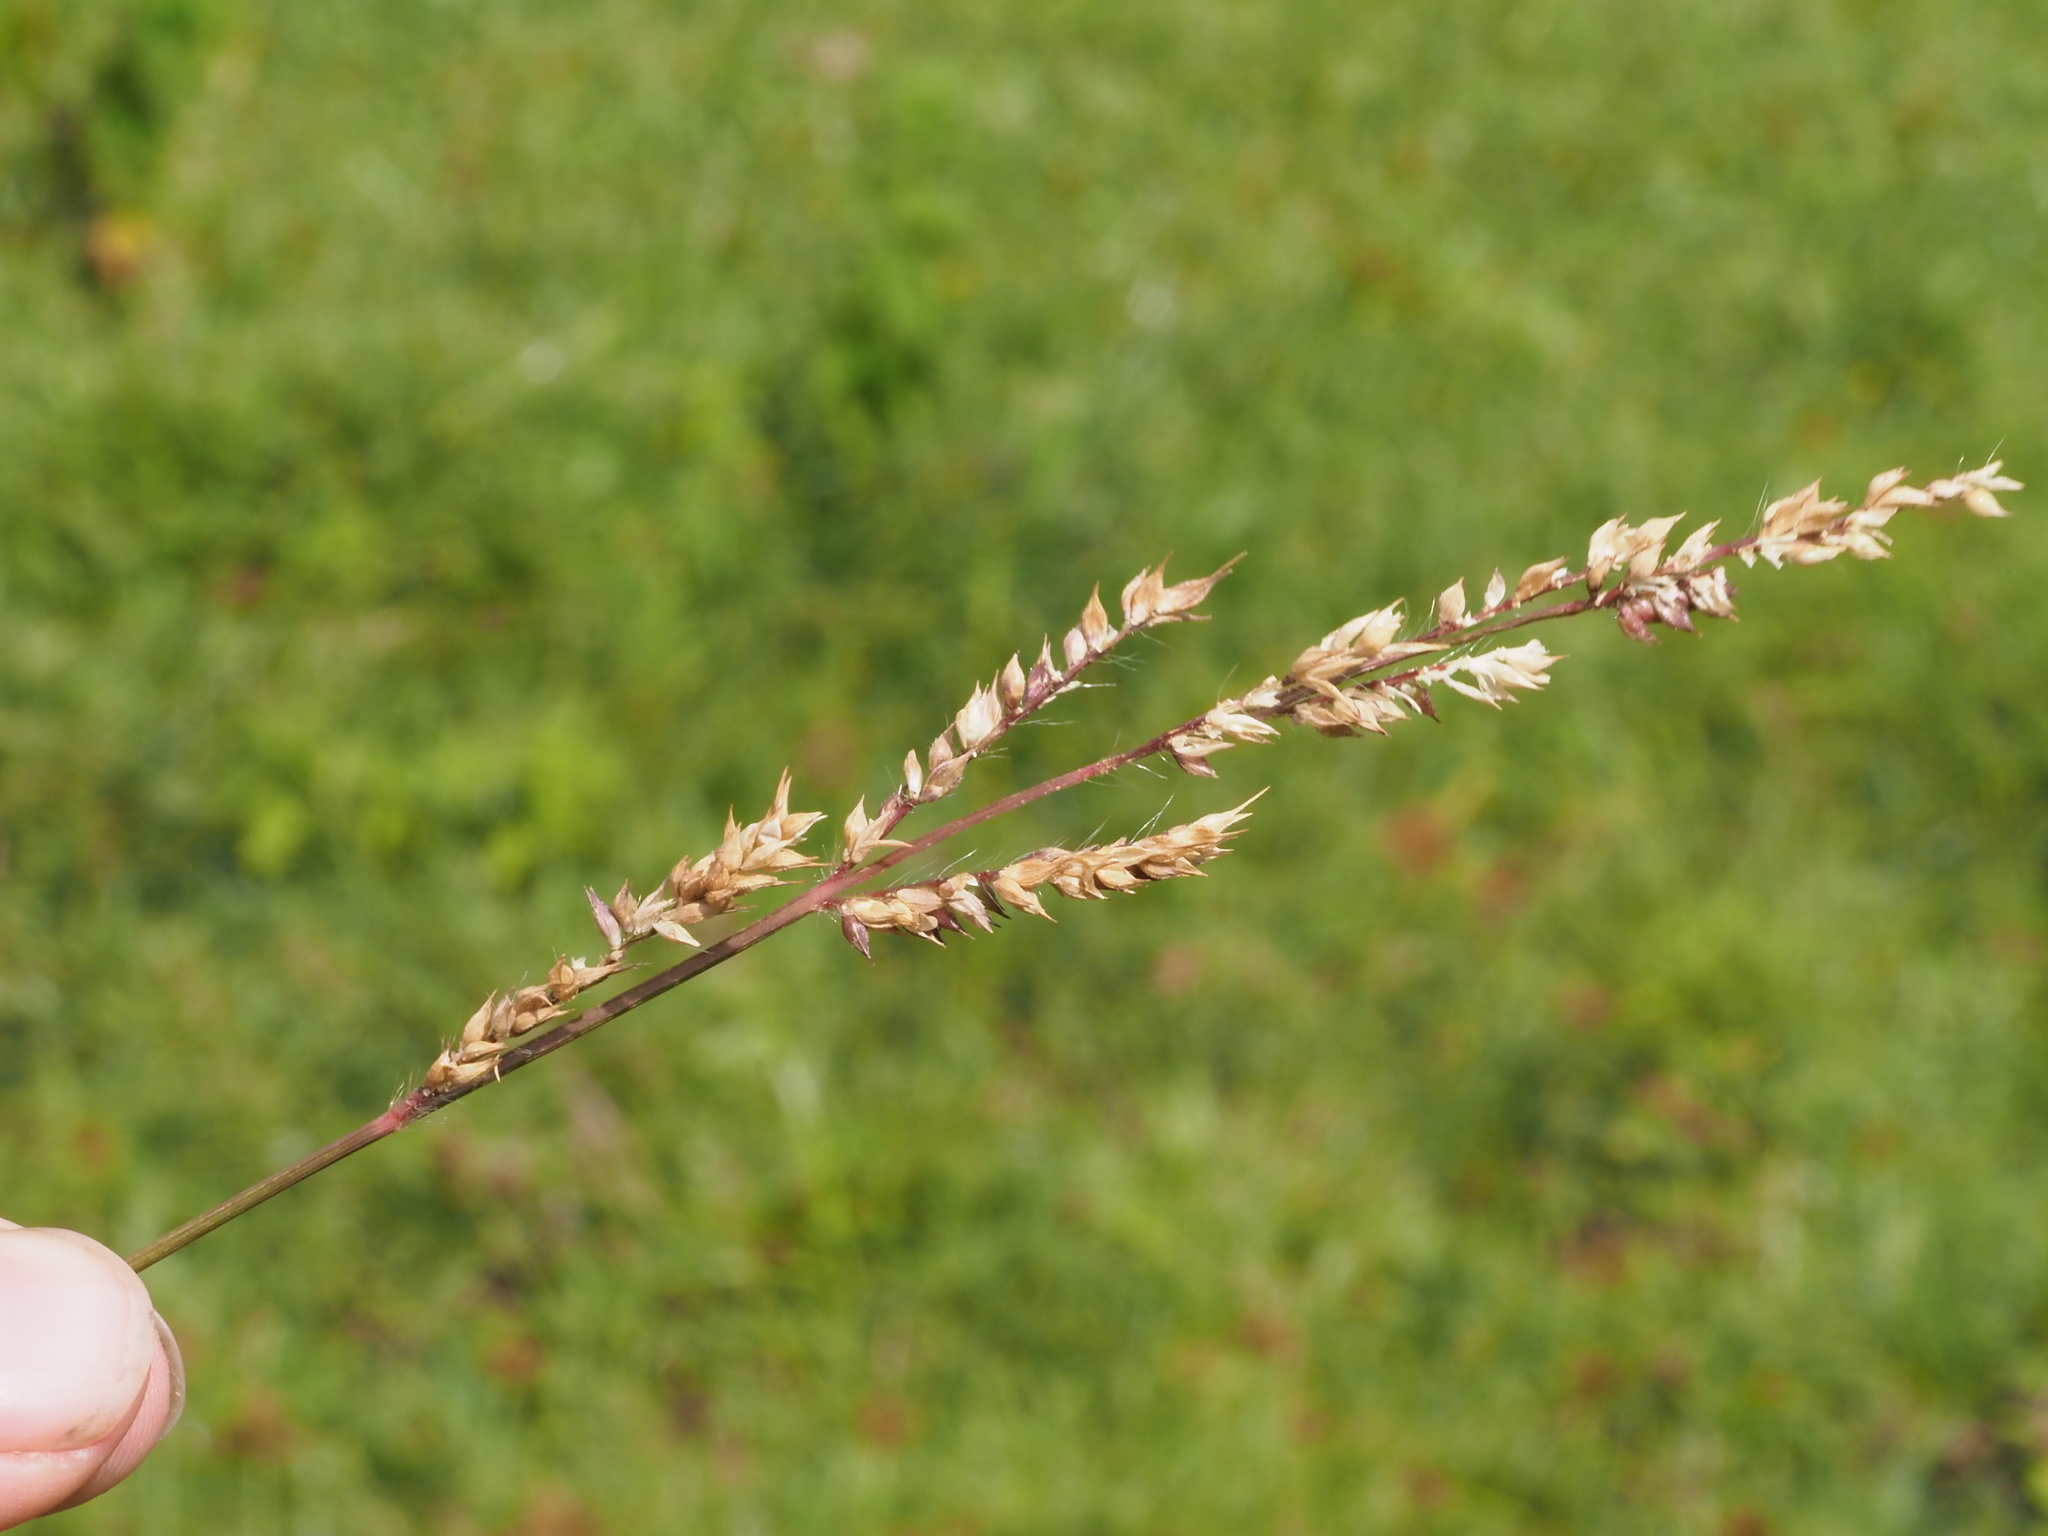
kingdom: Plantae
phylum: Tracheophyta
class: Liliopsida
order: Poales
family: Poaceae
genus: Echinochloa
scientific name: Echinochloa crus-galli
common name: Cockspur
